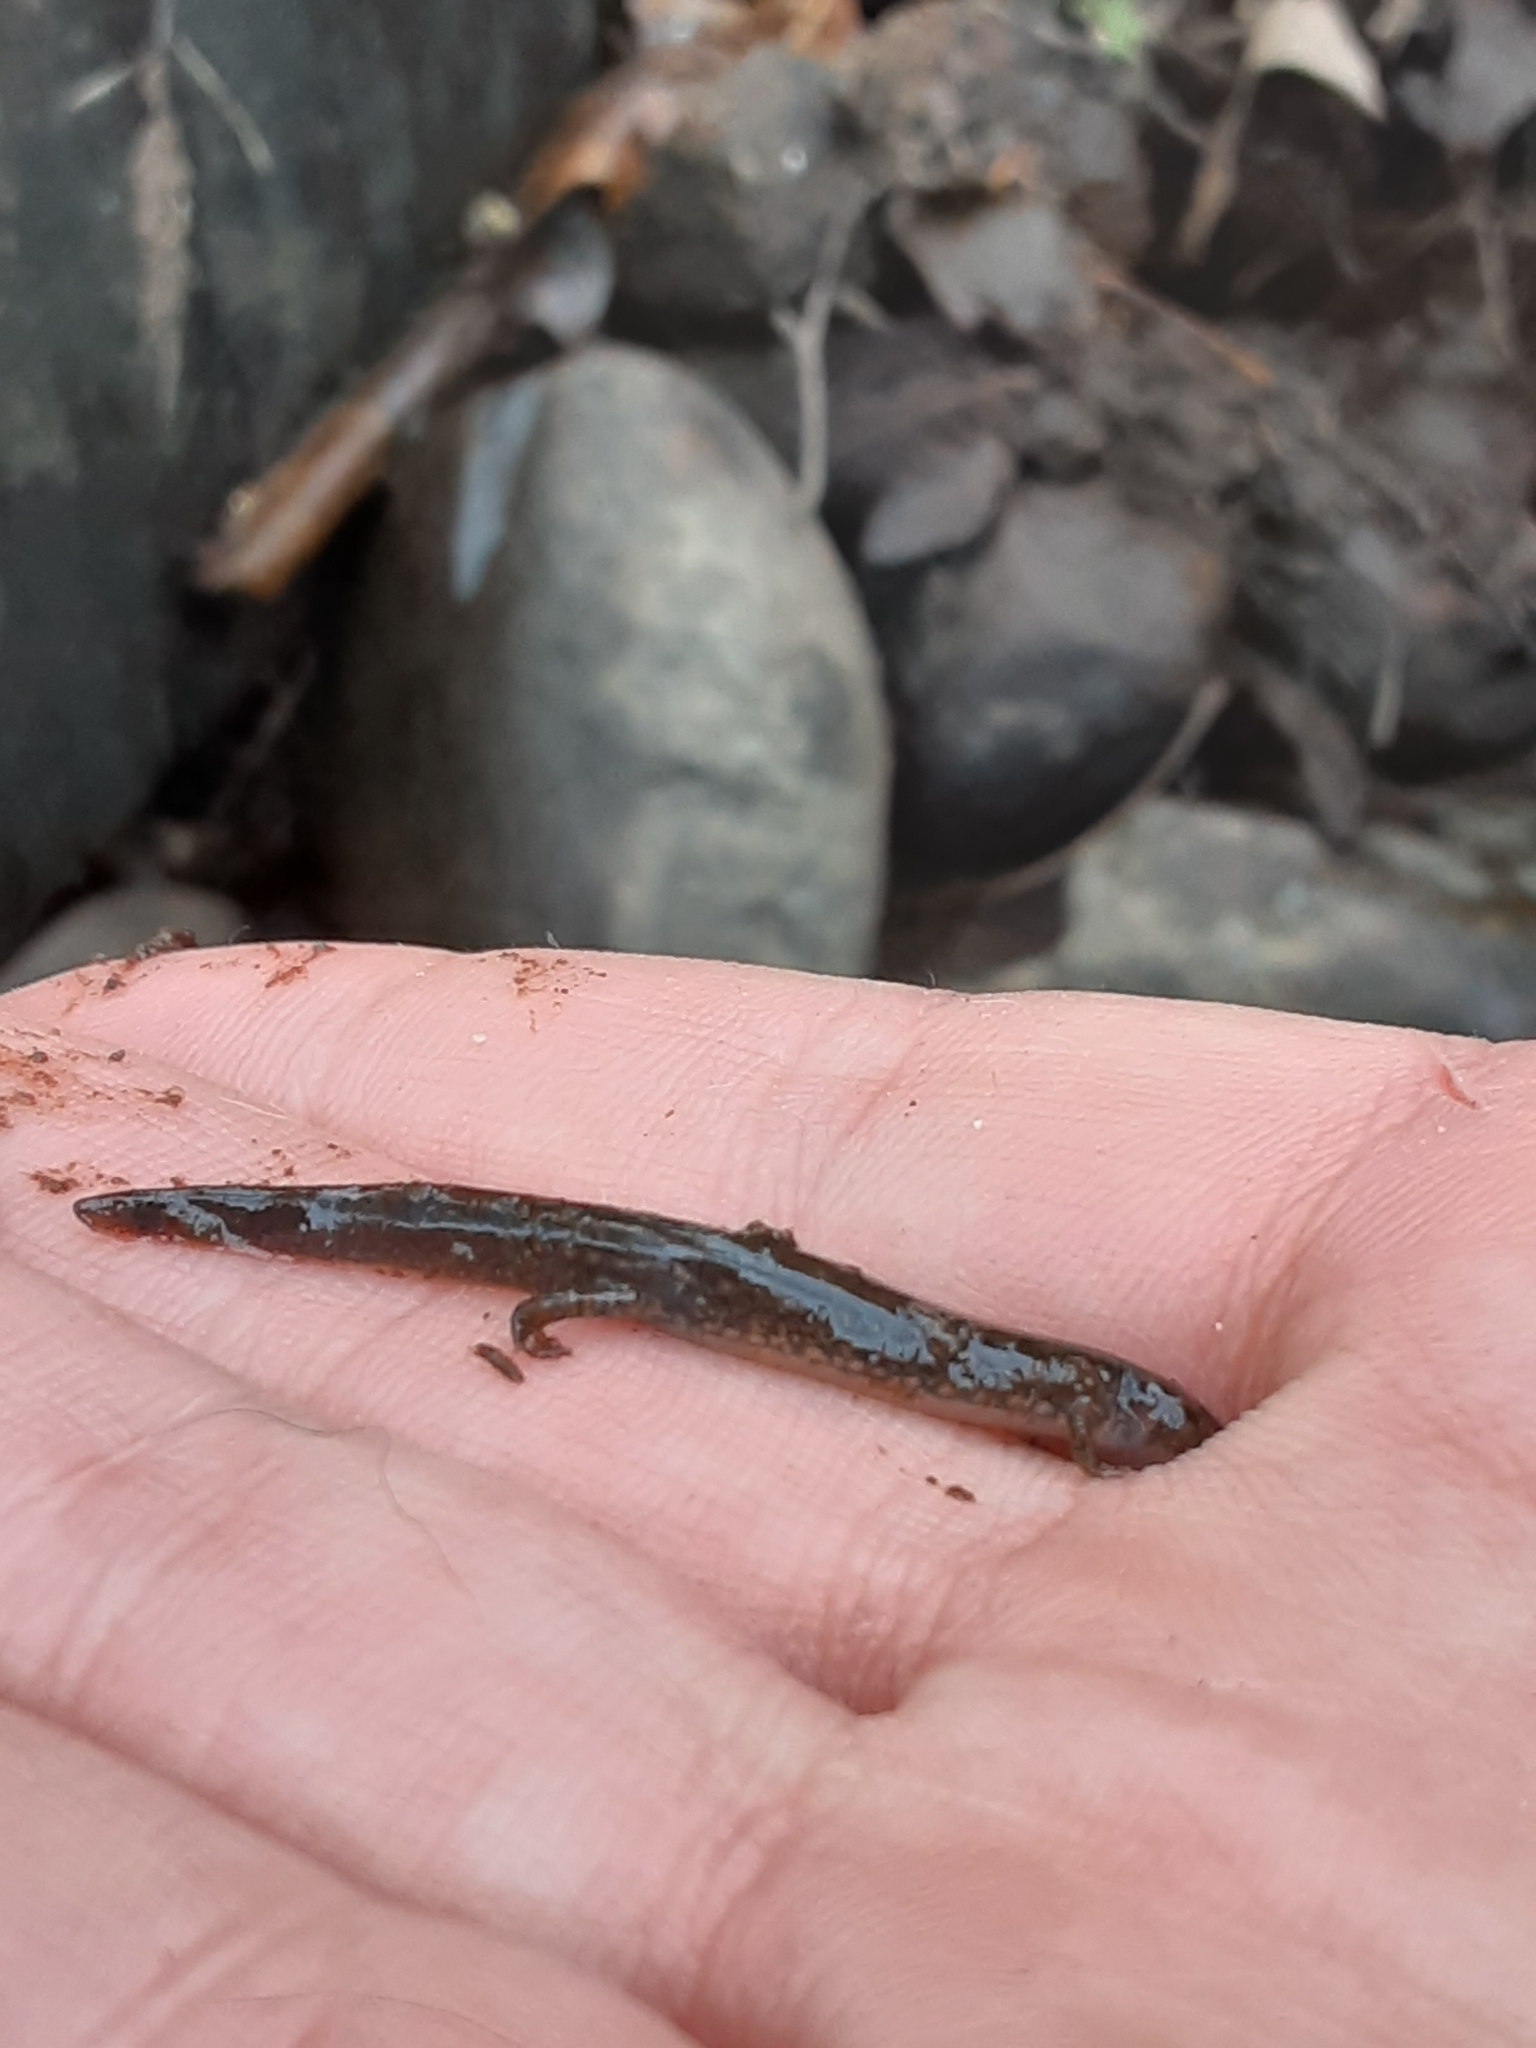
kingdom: Animalia
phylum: Chordata
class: Amphibia
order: Caudata
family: Plethodontidae
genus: Eurycea
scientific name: Eurycea bislineata
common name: Northern two-lined salamander
